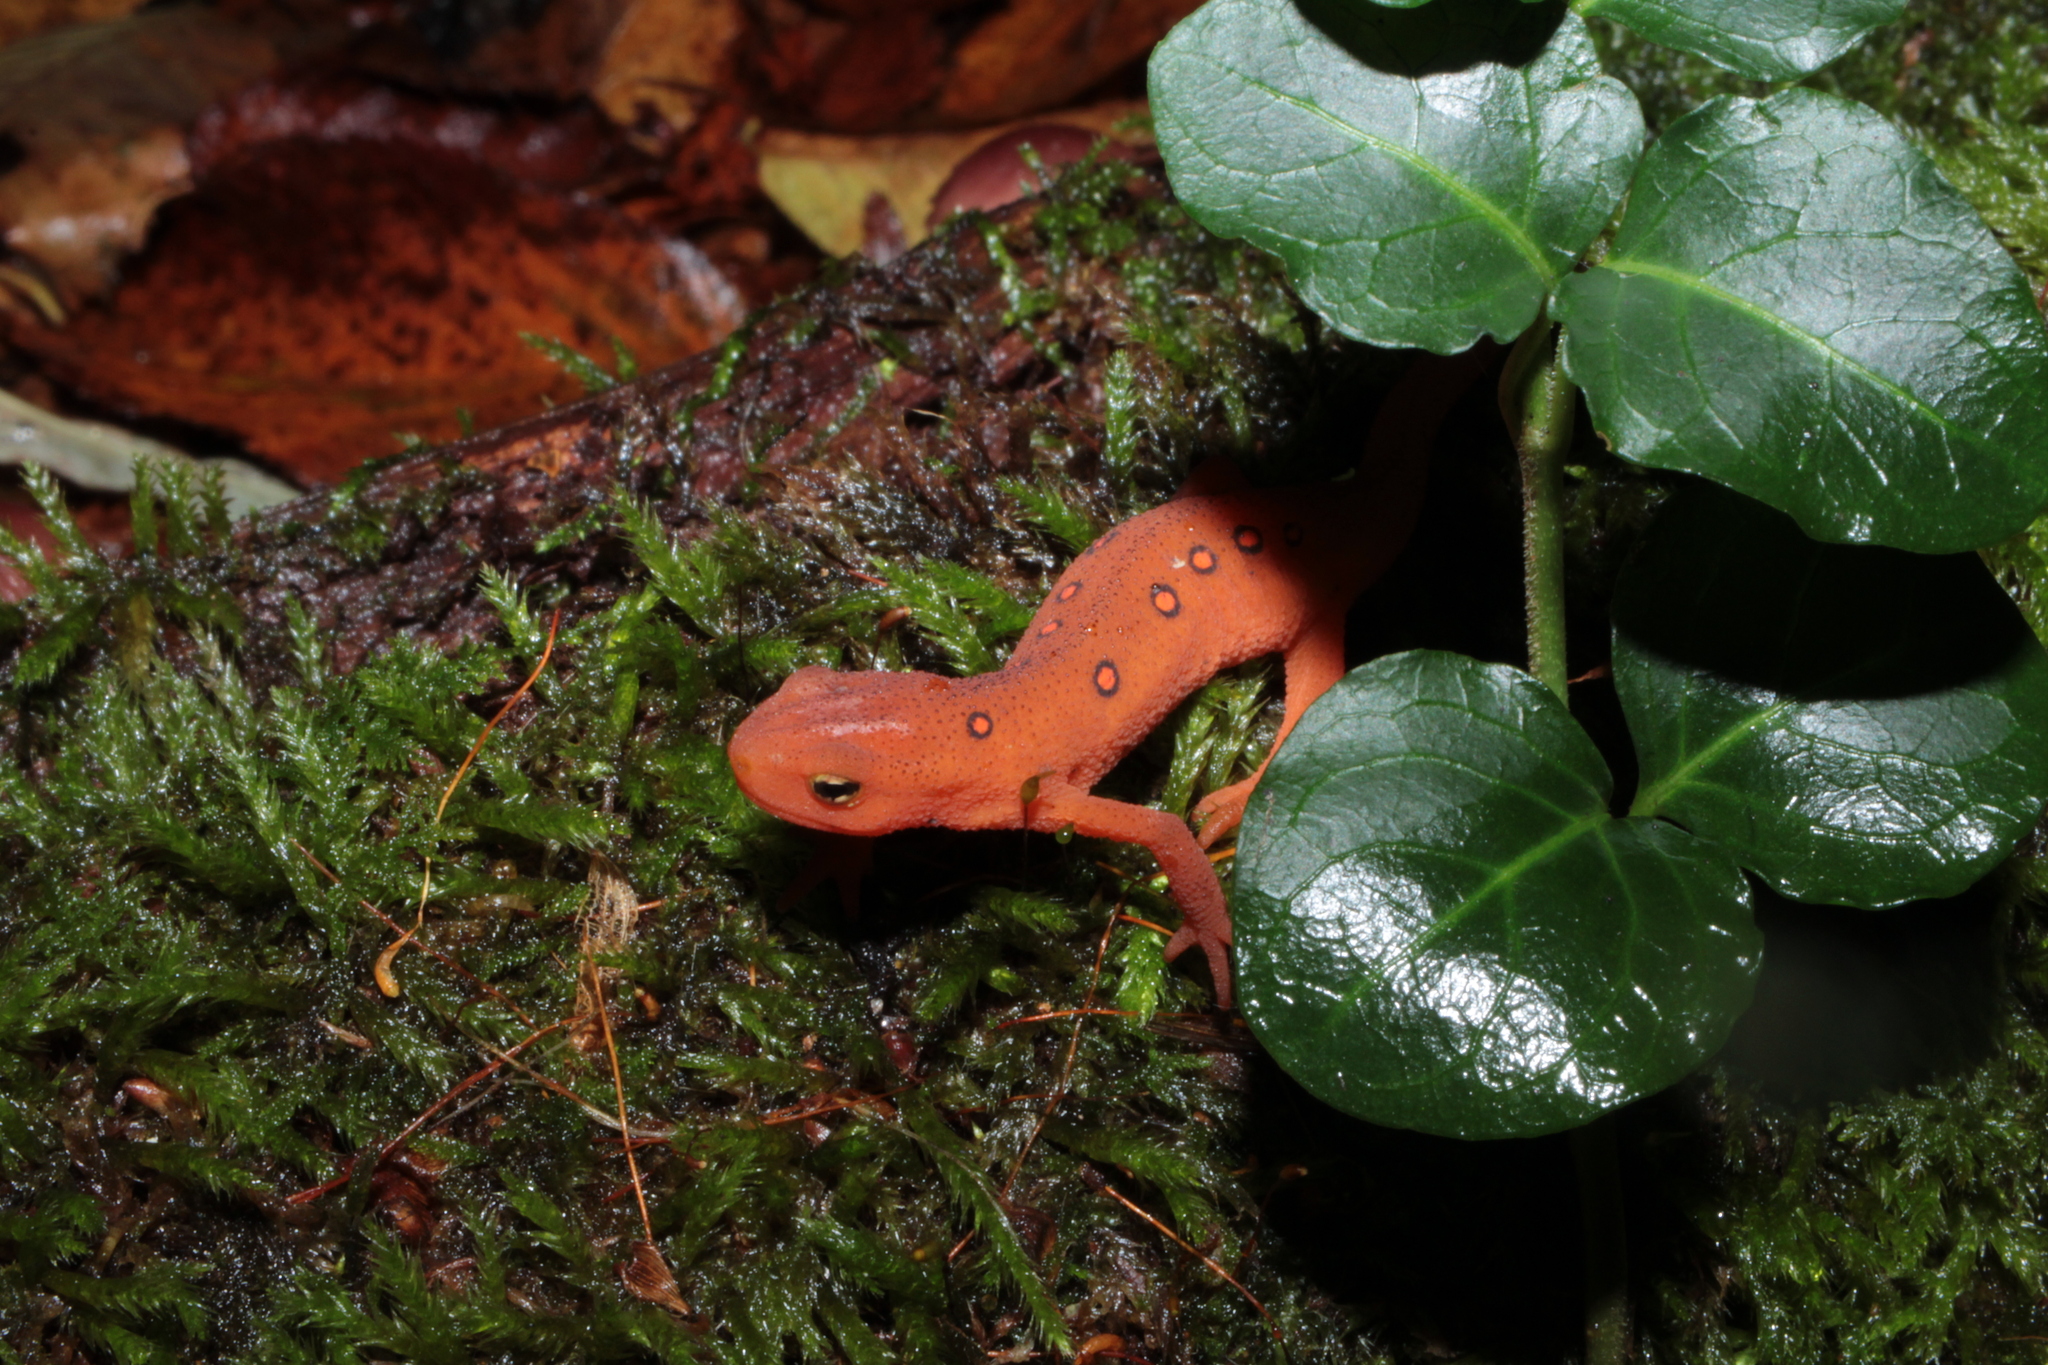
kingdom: Animalia
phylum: Chordata
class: Amphibia
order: Caudata
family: Salamandridae
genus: Notophthalmus
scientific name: Notophthalmus viridescens
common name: Eastern newt
